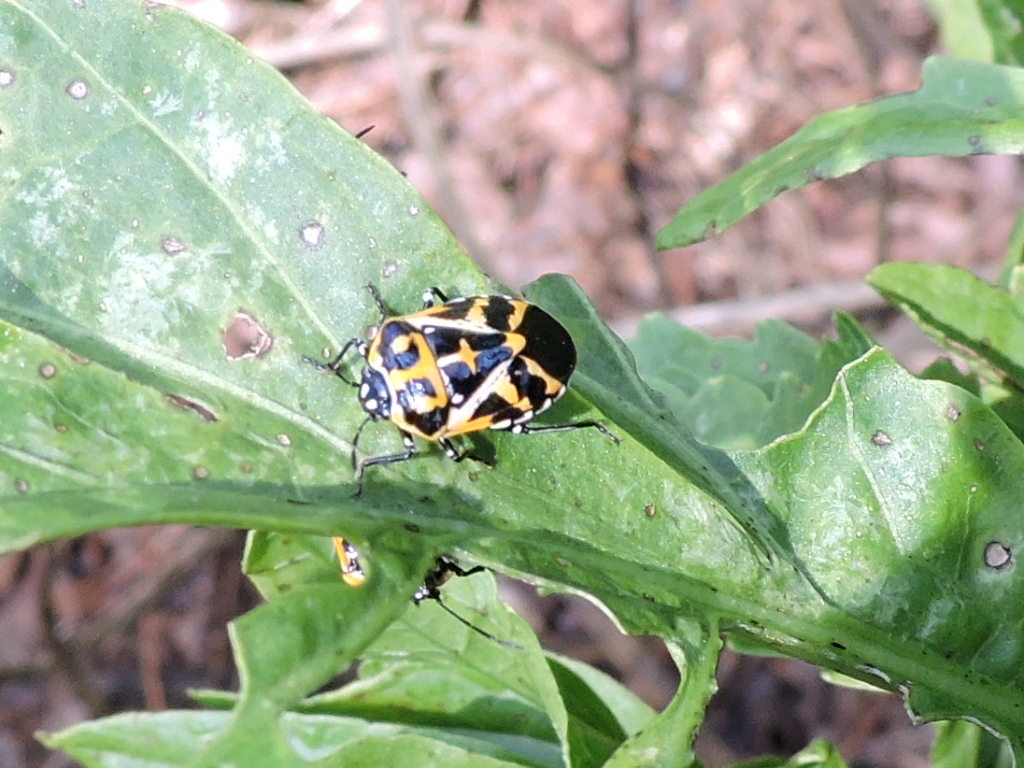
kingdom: Animalia
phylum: Arthropoda
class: Insecta
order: Hemiptera
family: Pentatomidae
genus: Murgantia
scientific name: Murgantia histrionica
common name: Harlequin bug
